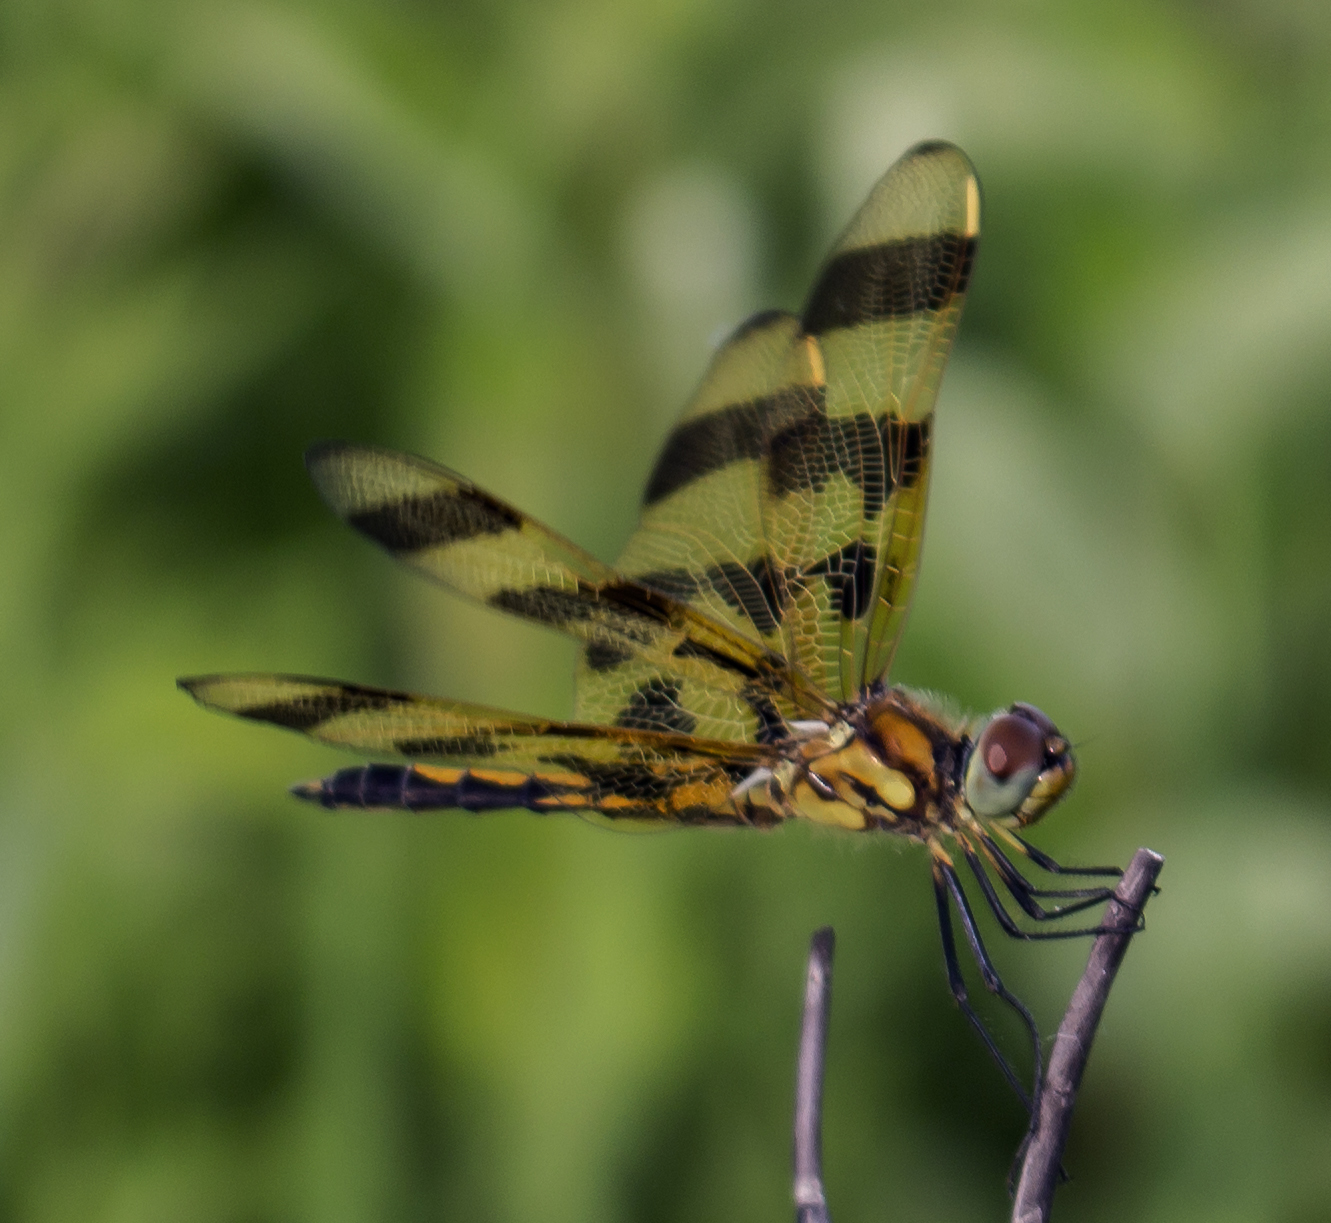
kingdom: Animalia
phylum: Arthropoda
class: Insecta
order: Odonata
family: Libellulidae
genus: Celithemis
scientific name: Celithemis eponina
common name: Halloween pennant
